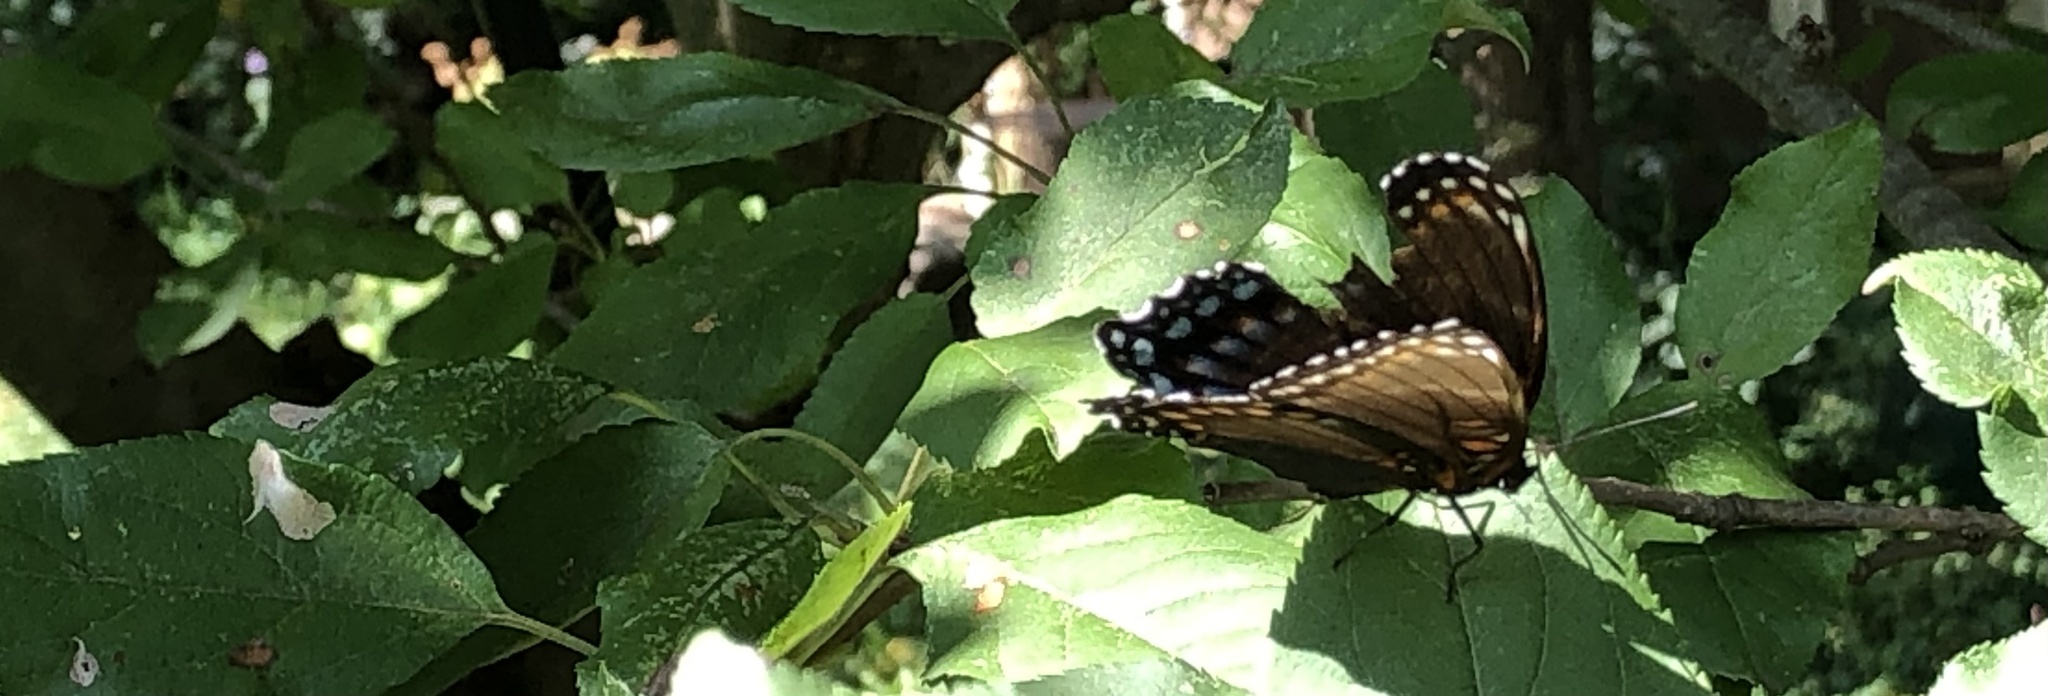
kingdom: Animalia
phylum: Arthropoda
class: Insecta
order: Lepidoptera
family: Nymphalidae
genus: Limenitis
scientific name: Limenitis astyanax
